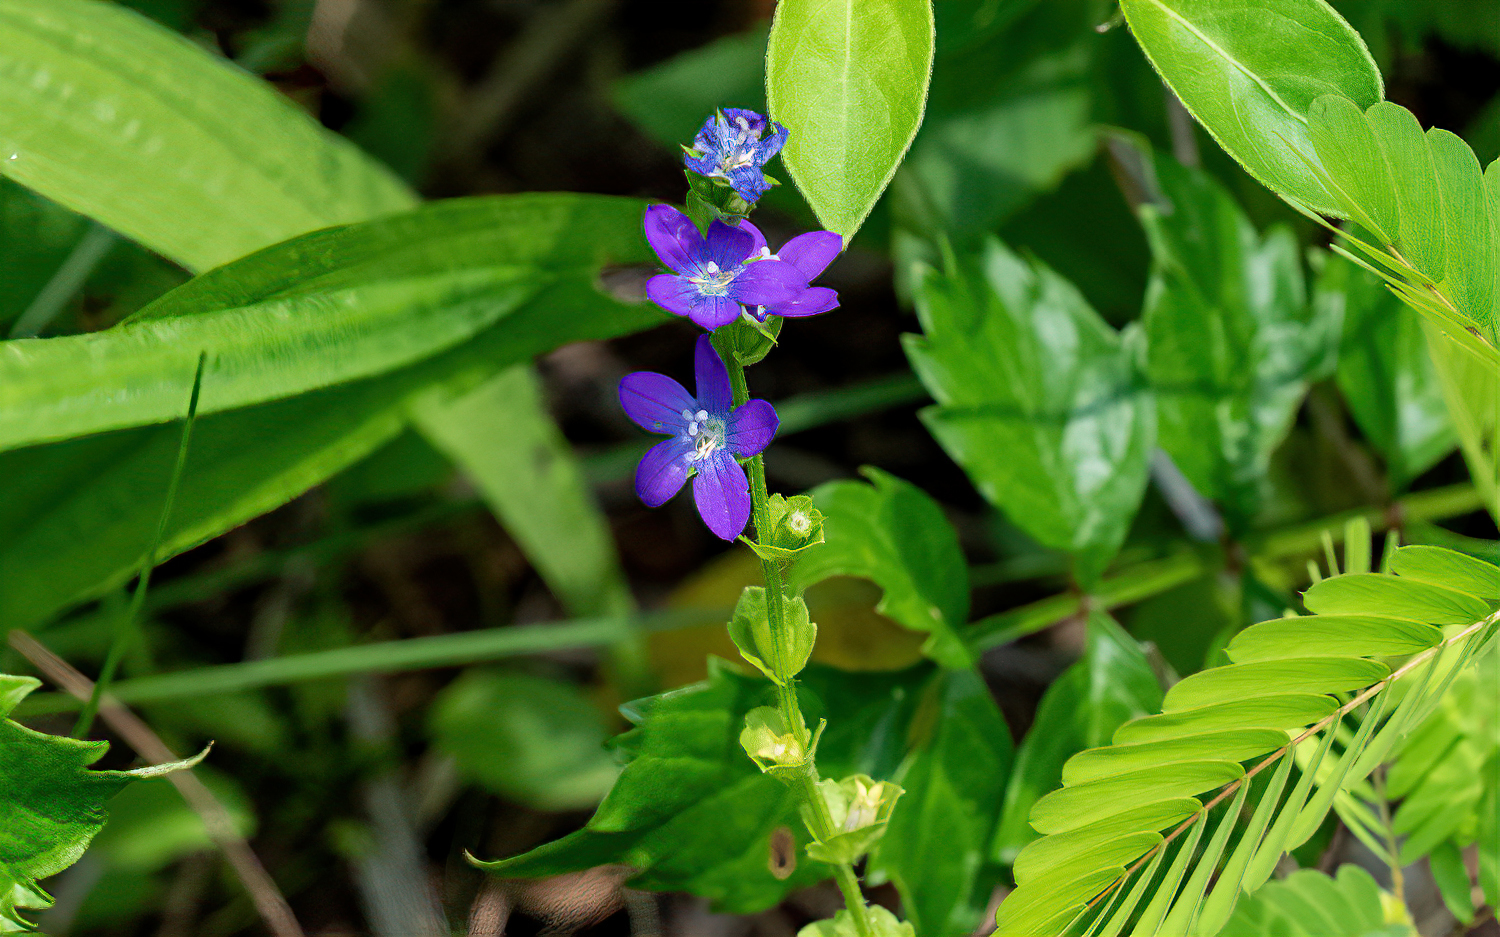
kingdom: Plantae
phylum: Tracheophyta
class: Magnoliopsida
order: Asterales
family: Campanulaceae
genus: Triodanis
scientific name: Triodanis perfoliata
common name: Clasping venus' looking-glass
